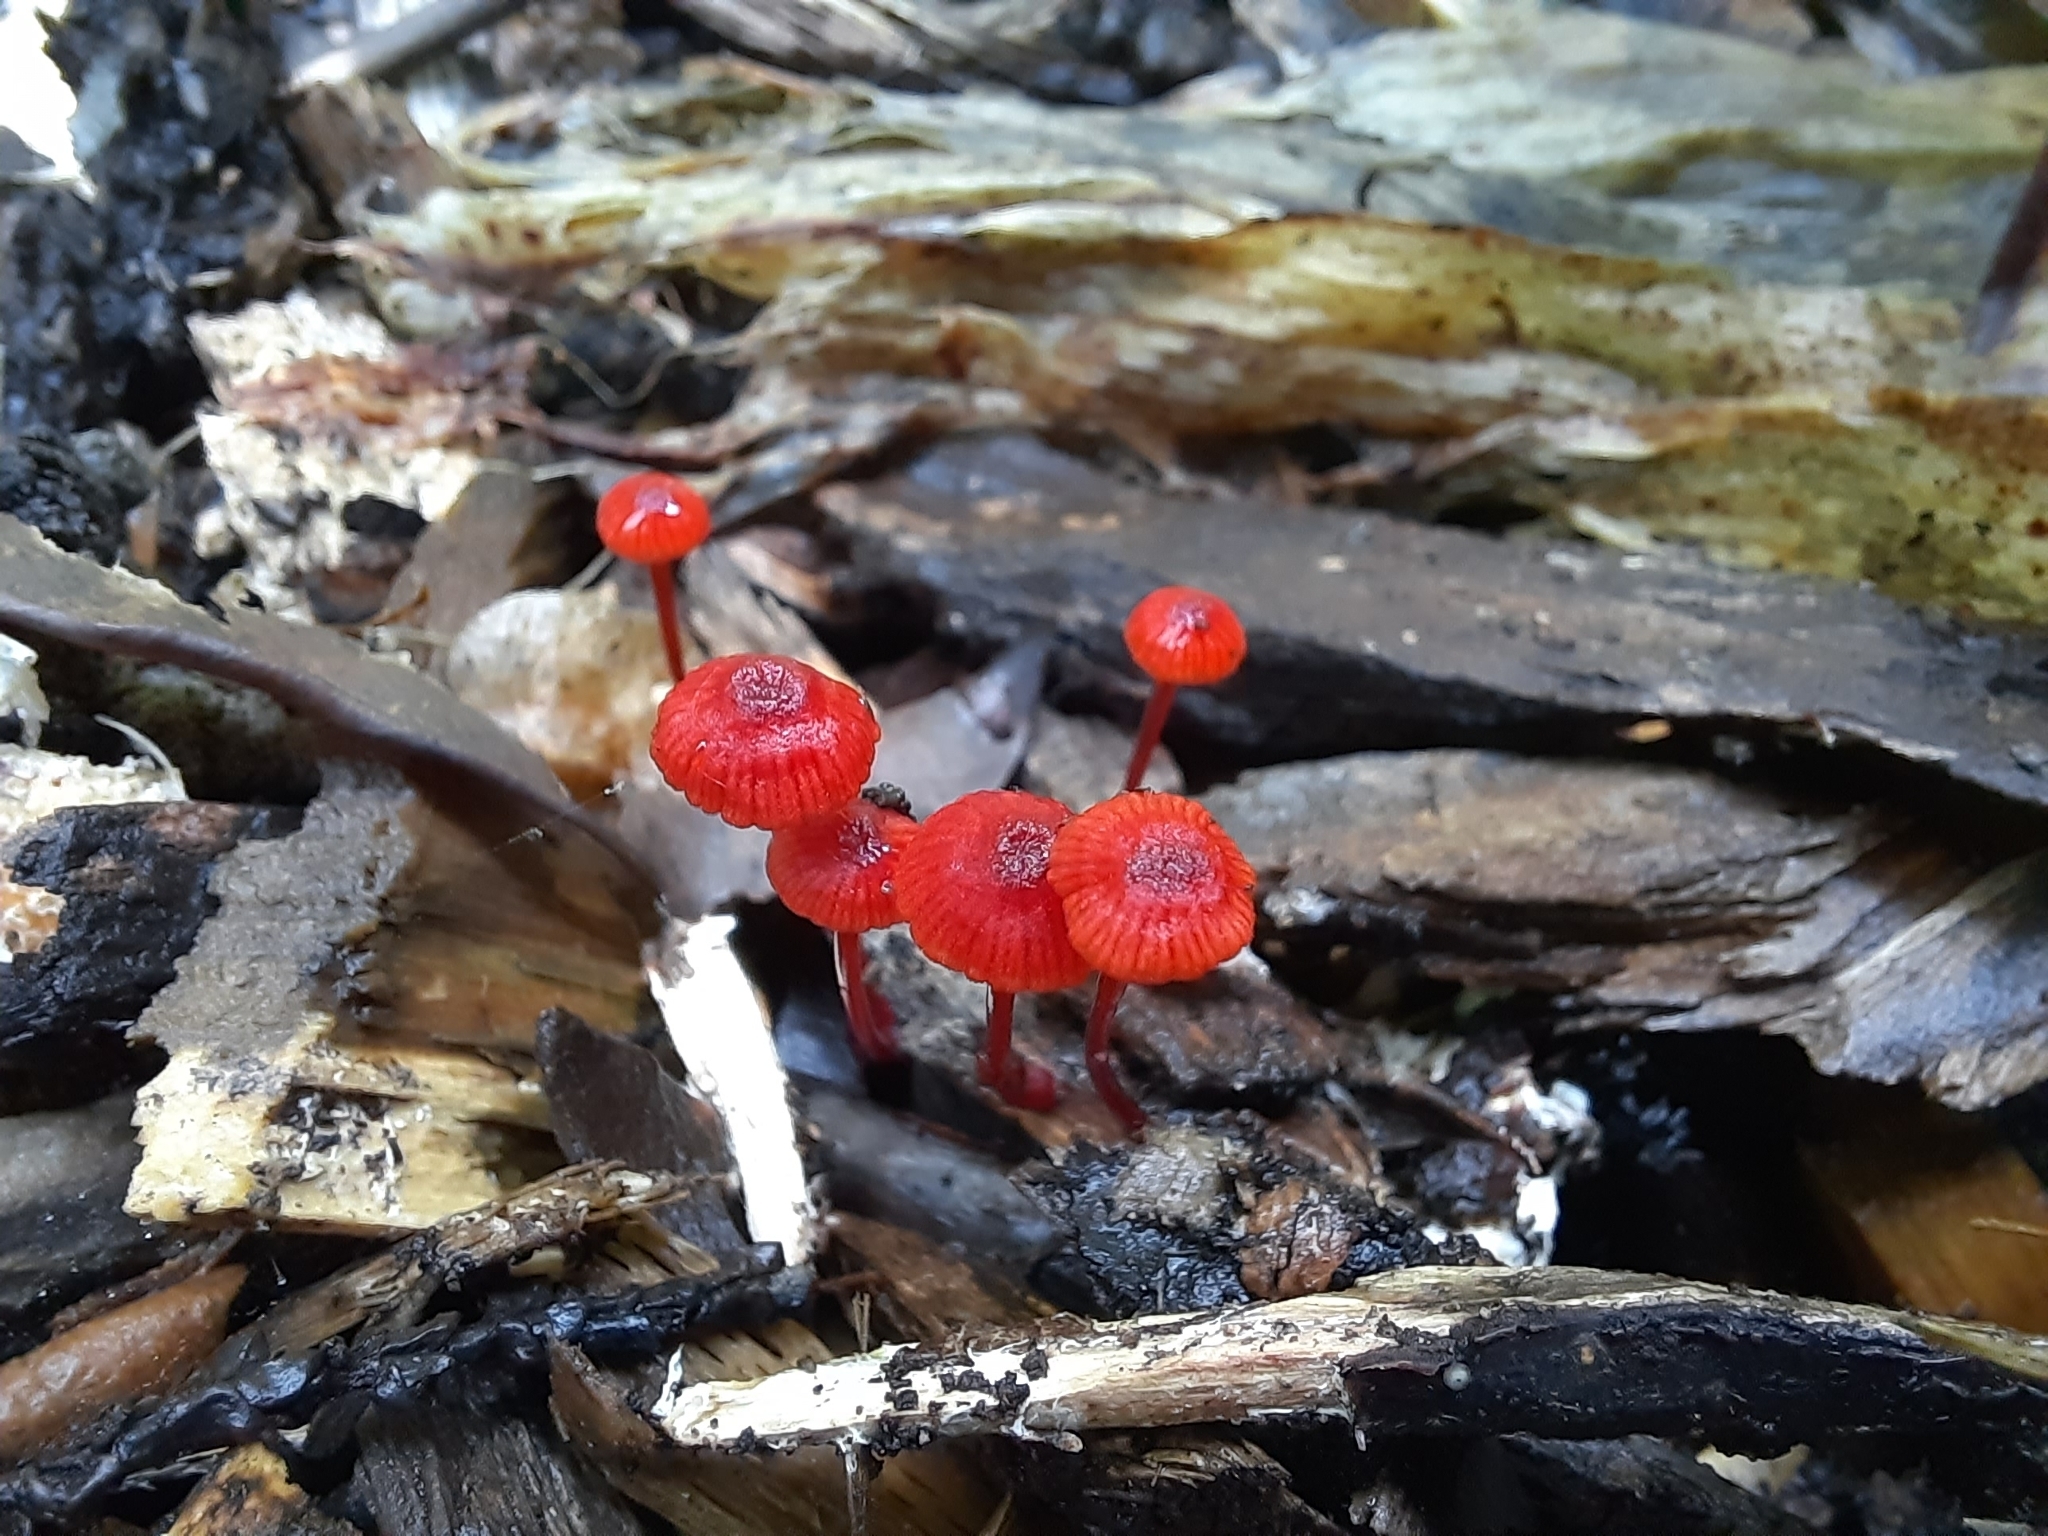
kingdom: Fungi
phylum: Basidiomycota
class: Agaricomycetes
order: Agaricales
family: Mycenaceae
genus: Cruentomycena
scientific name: Cruentomycena viscidocruenta
